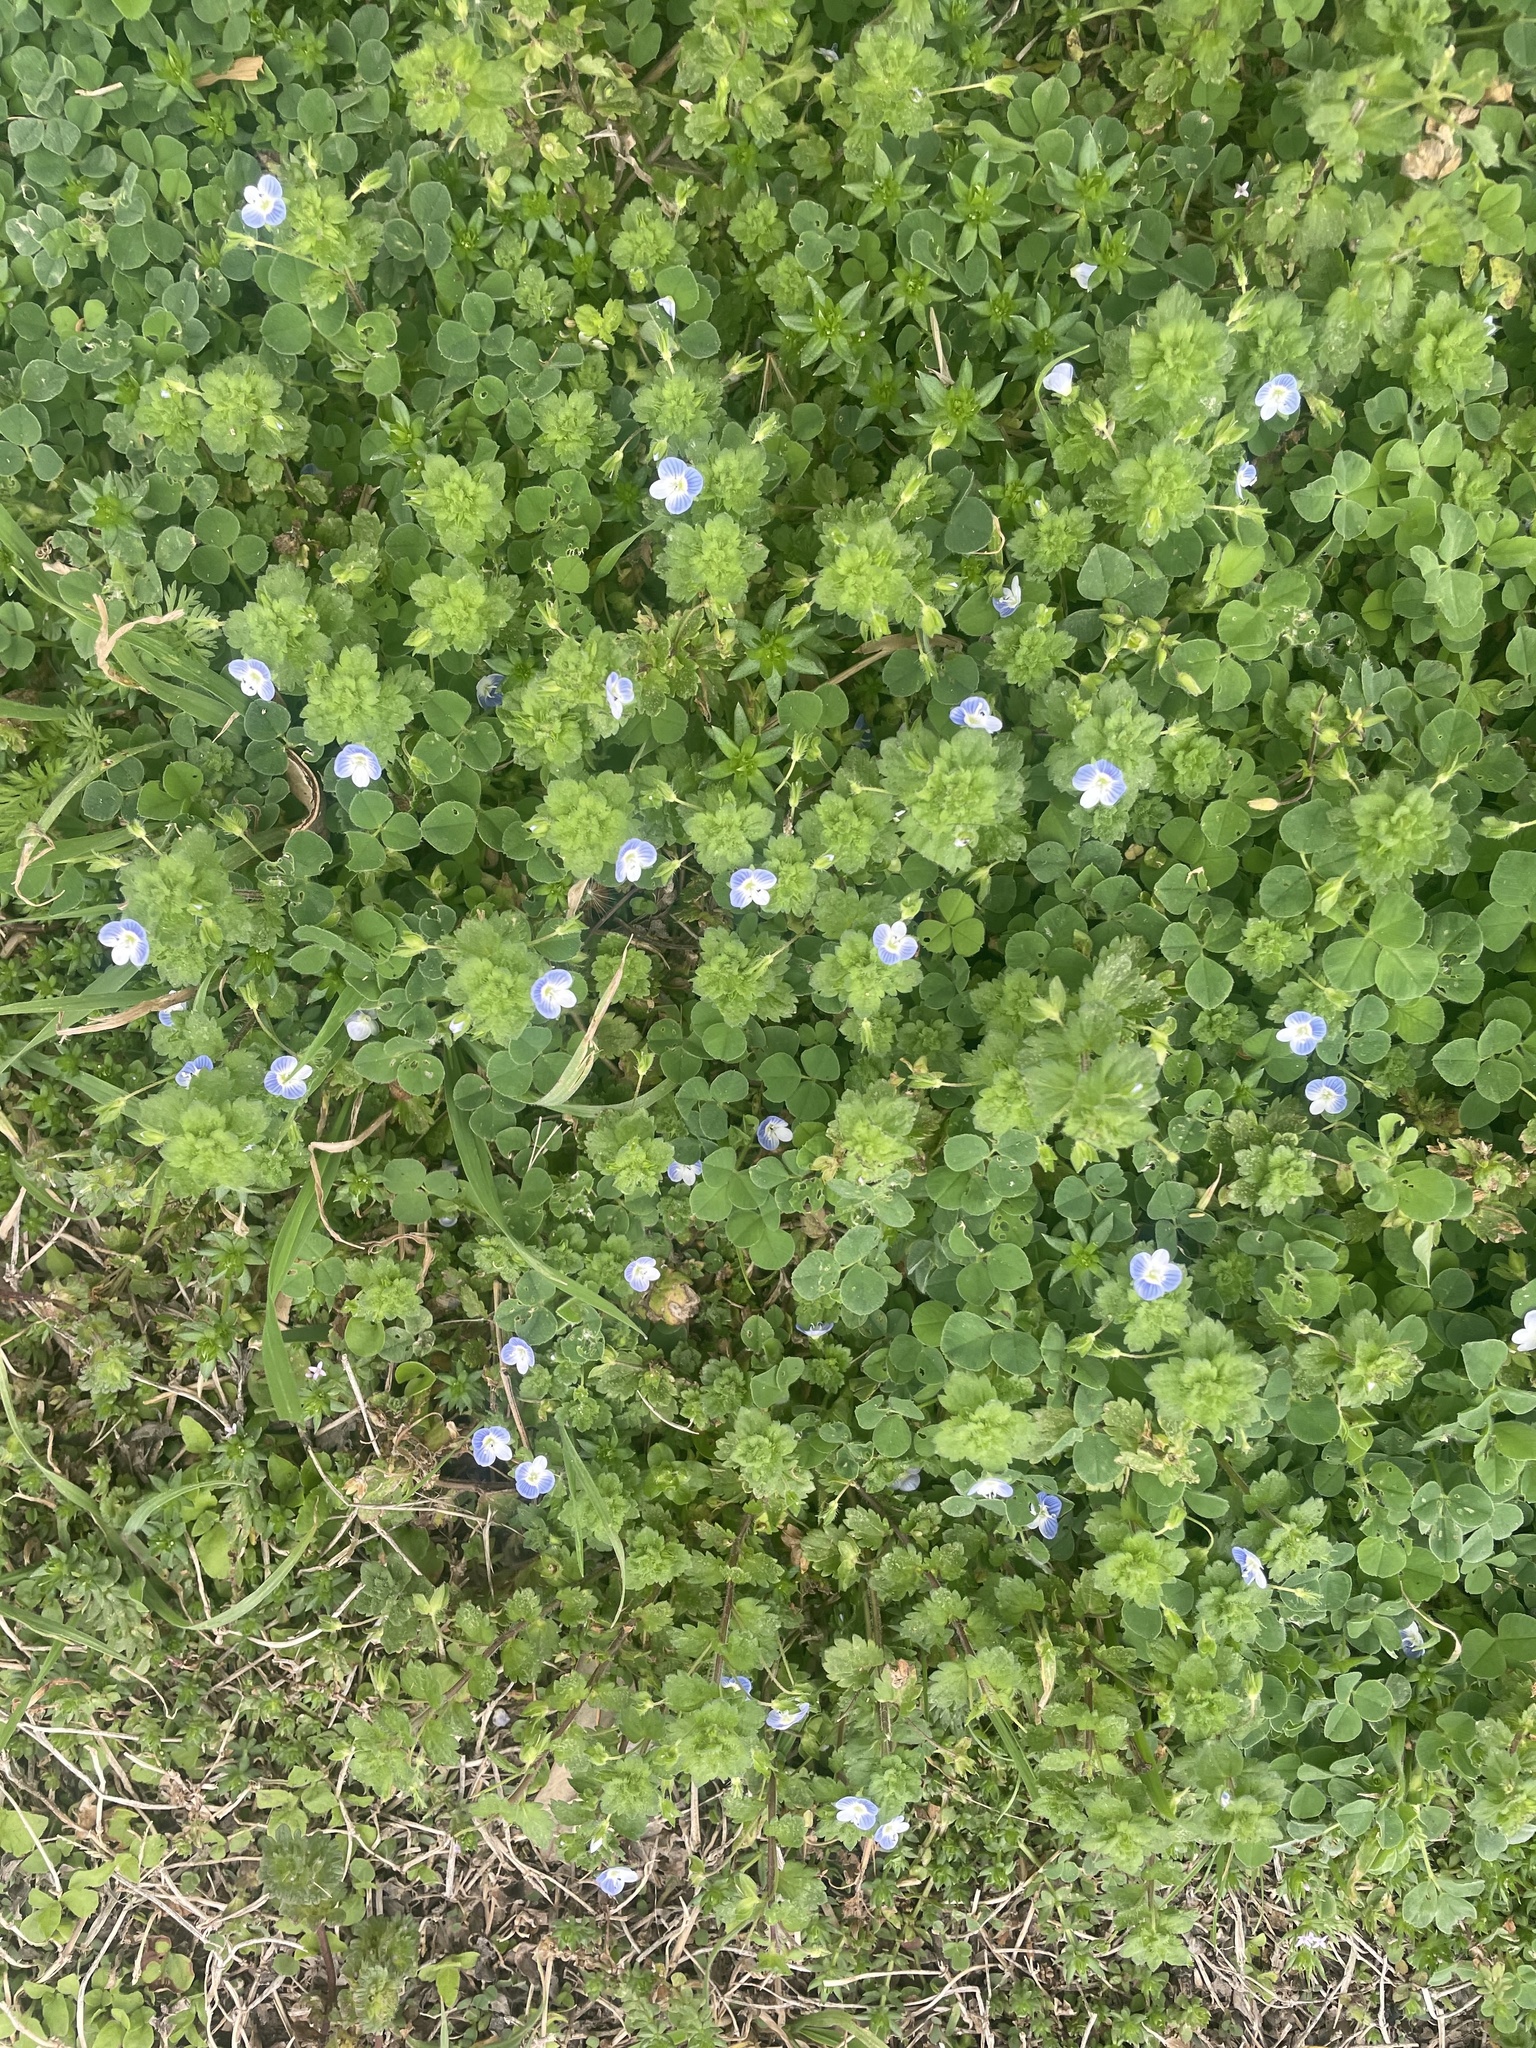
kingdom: Plantae
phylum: Tracheophyta
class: Magnoliopsida
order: Lamiales
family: Plantaginaceae
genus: Veronica
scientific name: Veronica persica
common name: Common field-speedwell
